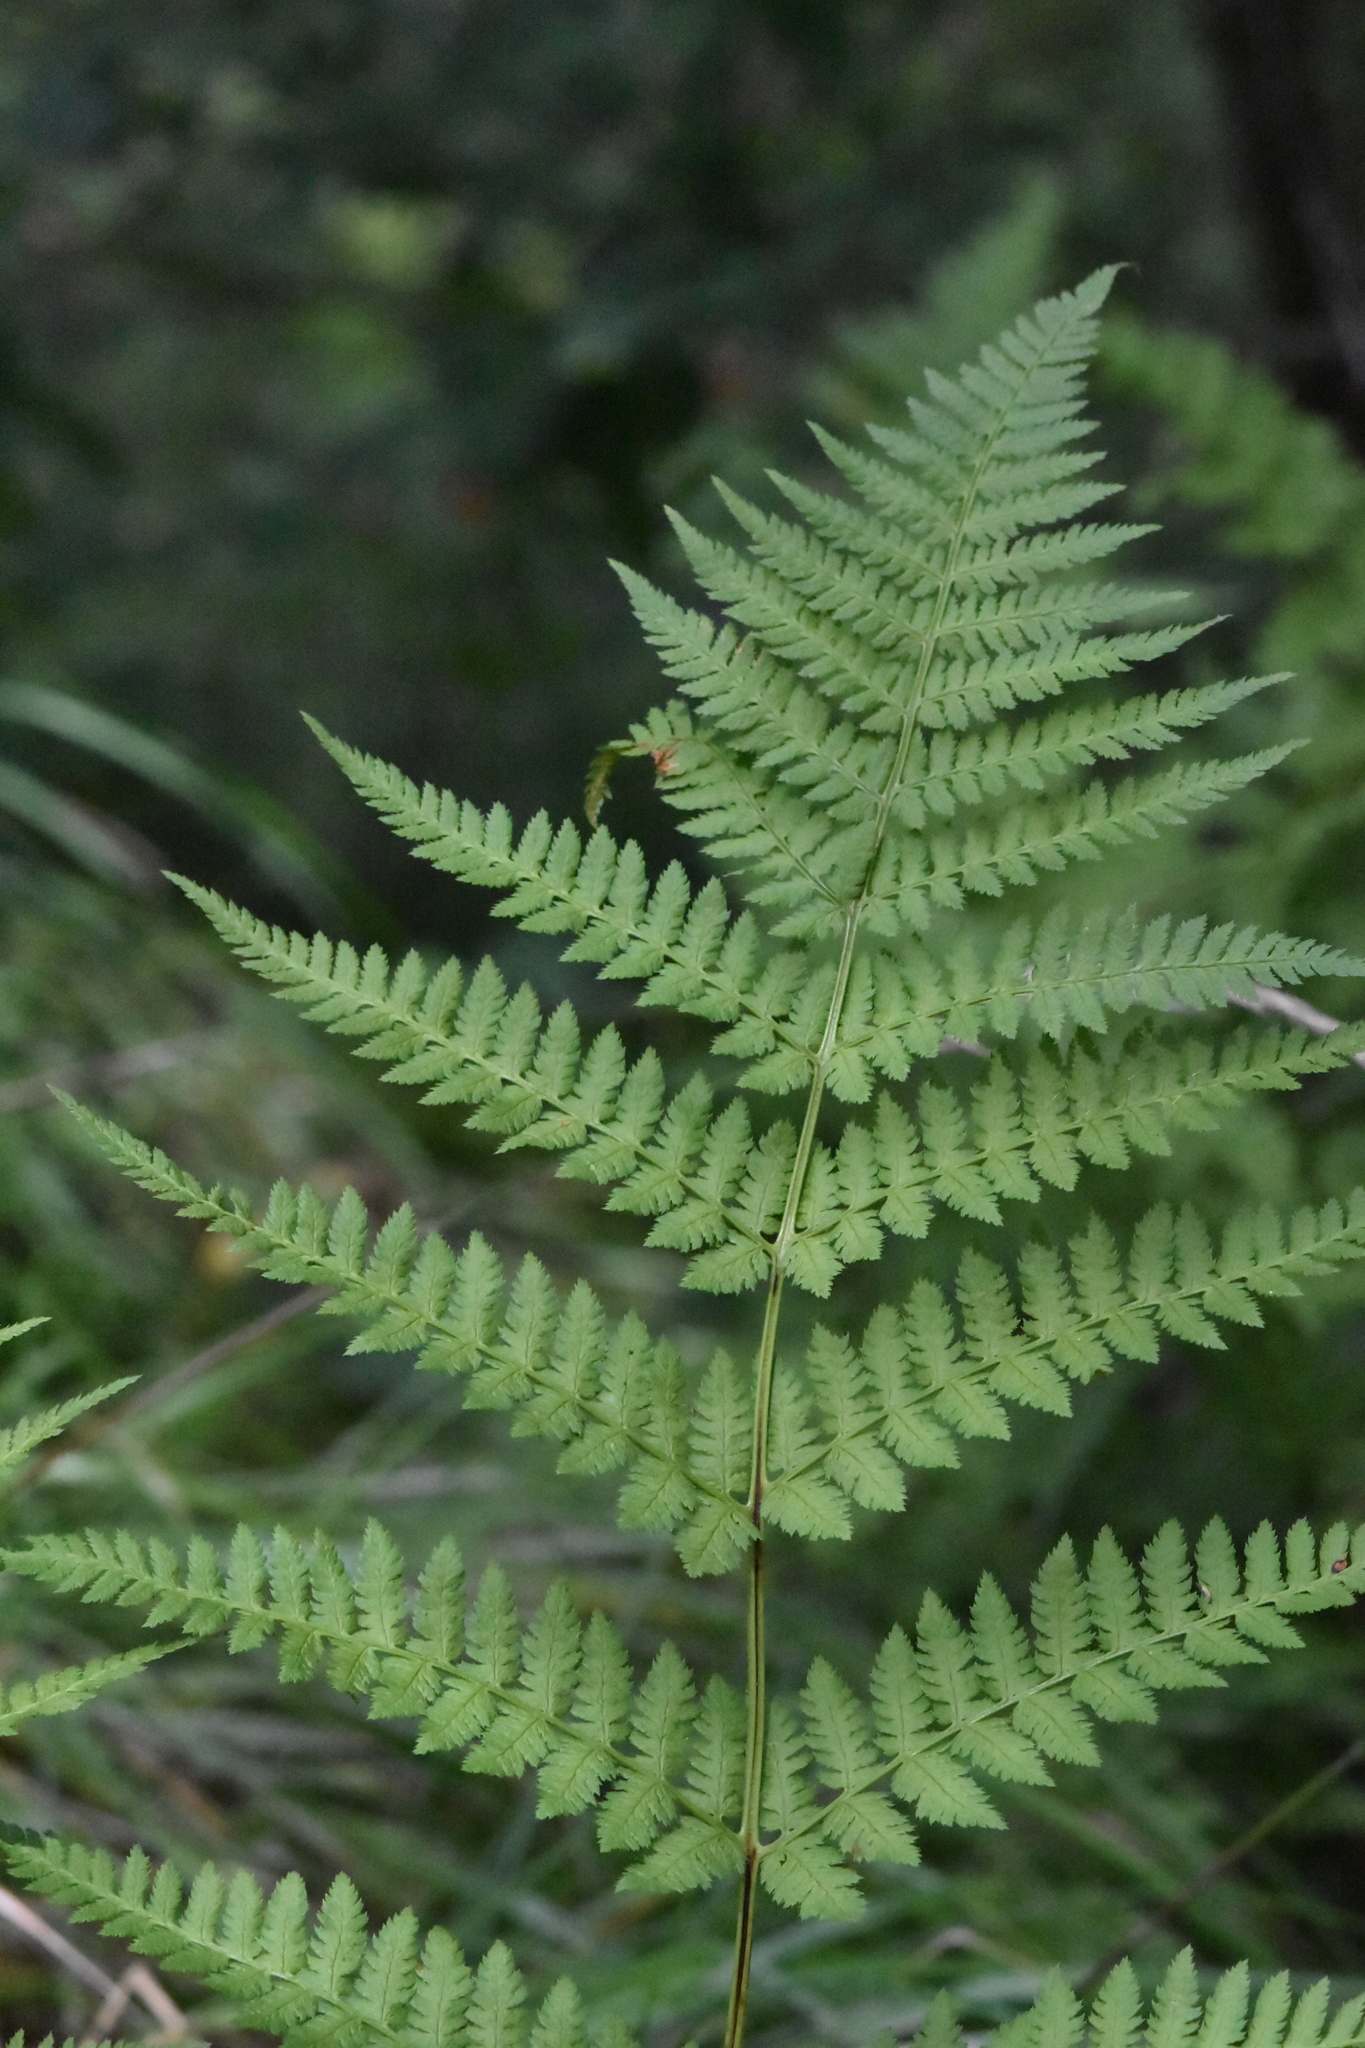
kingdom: Plantae
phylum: Tracheophyta
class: Polypodiopsida
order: Polypodiales
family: Dryopteridaceae
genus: Dryopteris
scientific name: Dryopteris carthusiana
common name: Narrow buckler-fern
